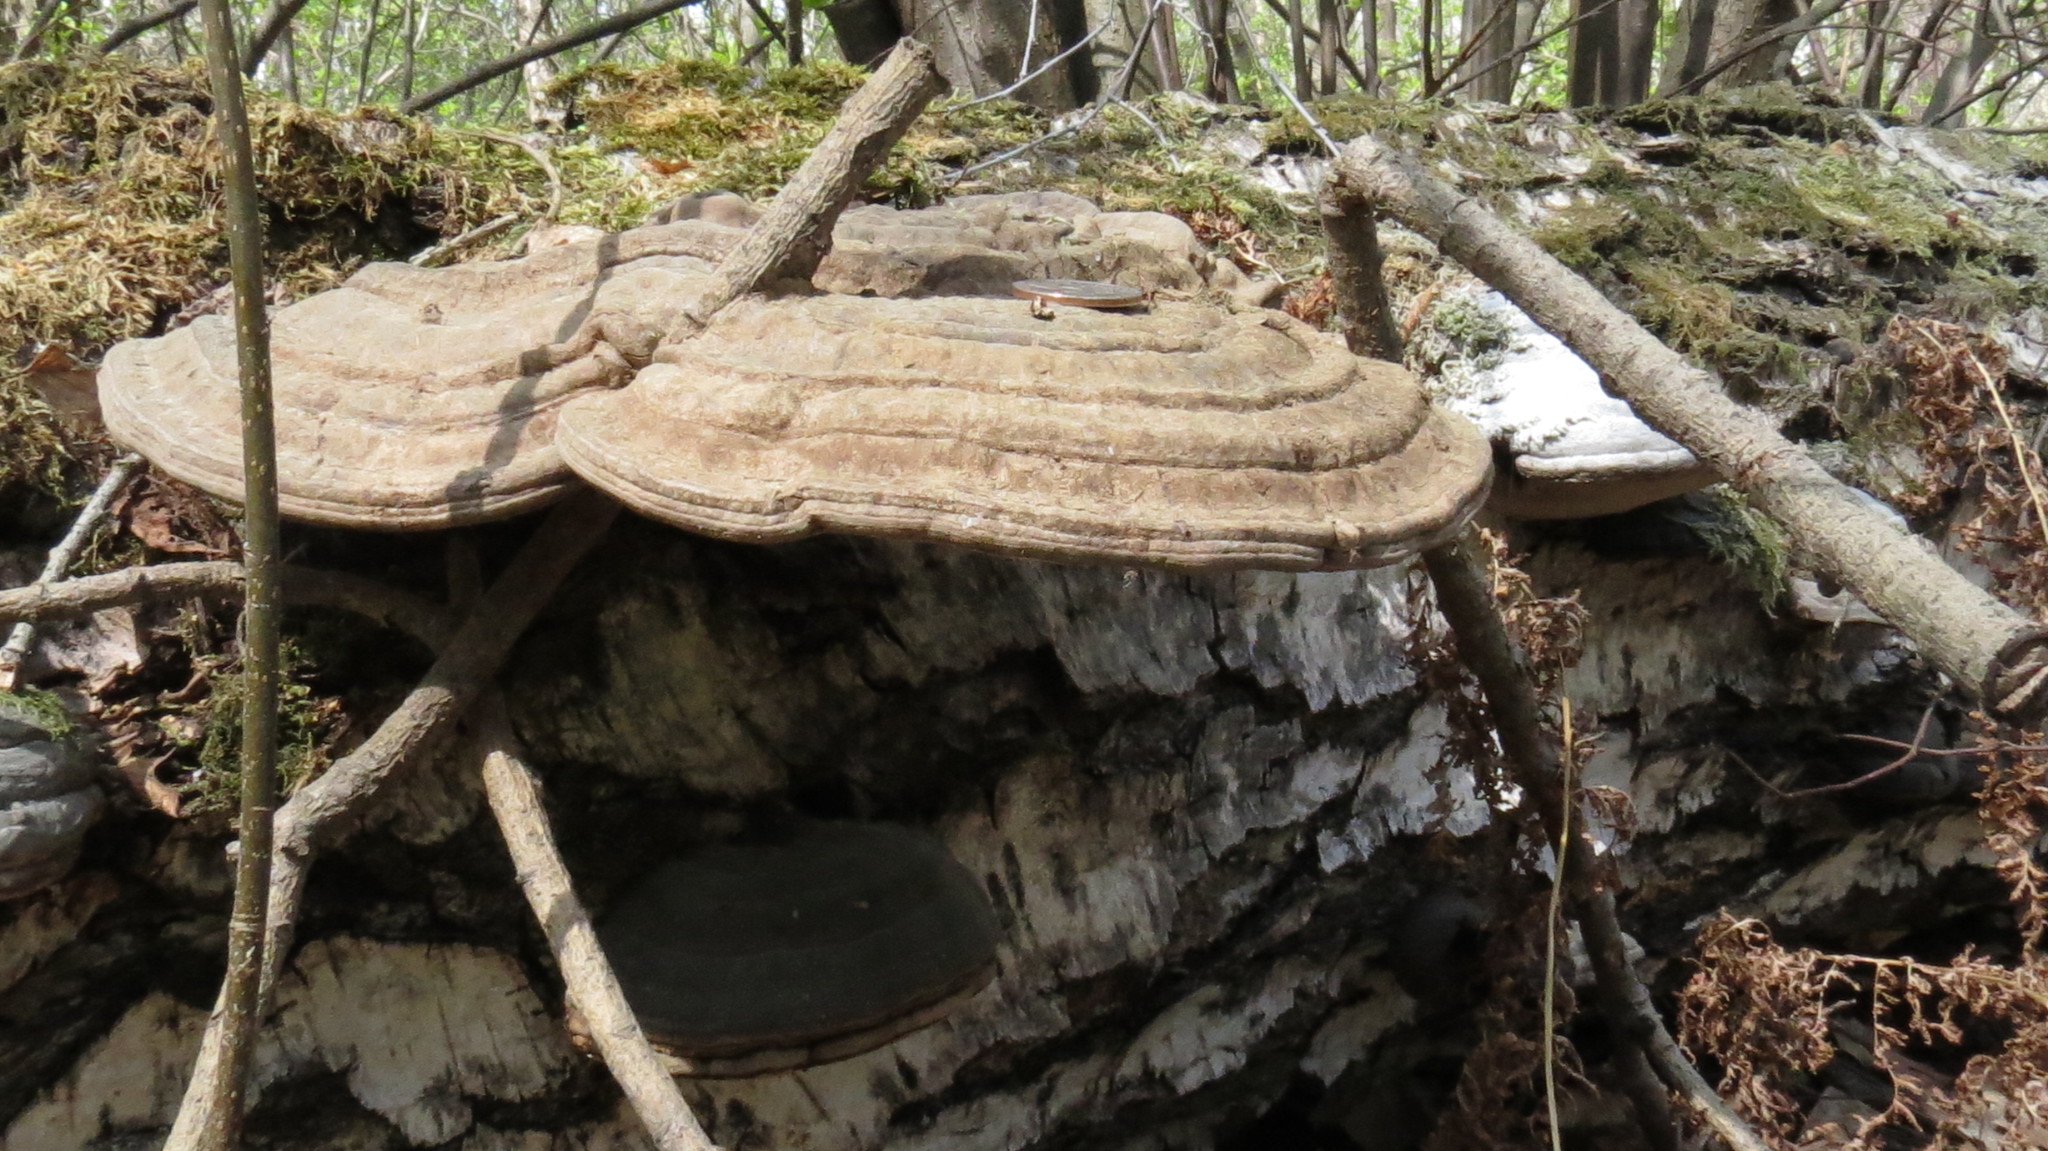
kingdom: Fungi
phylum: Basidiomycota
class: Agaricomycetes
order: Polyporales
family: Polyporaceae
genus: Ganoderma
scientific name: Ganoderma applanatum
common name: Artist's bracket
